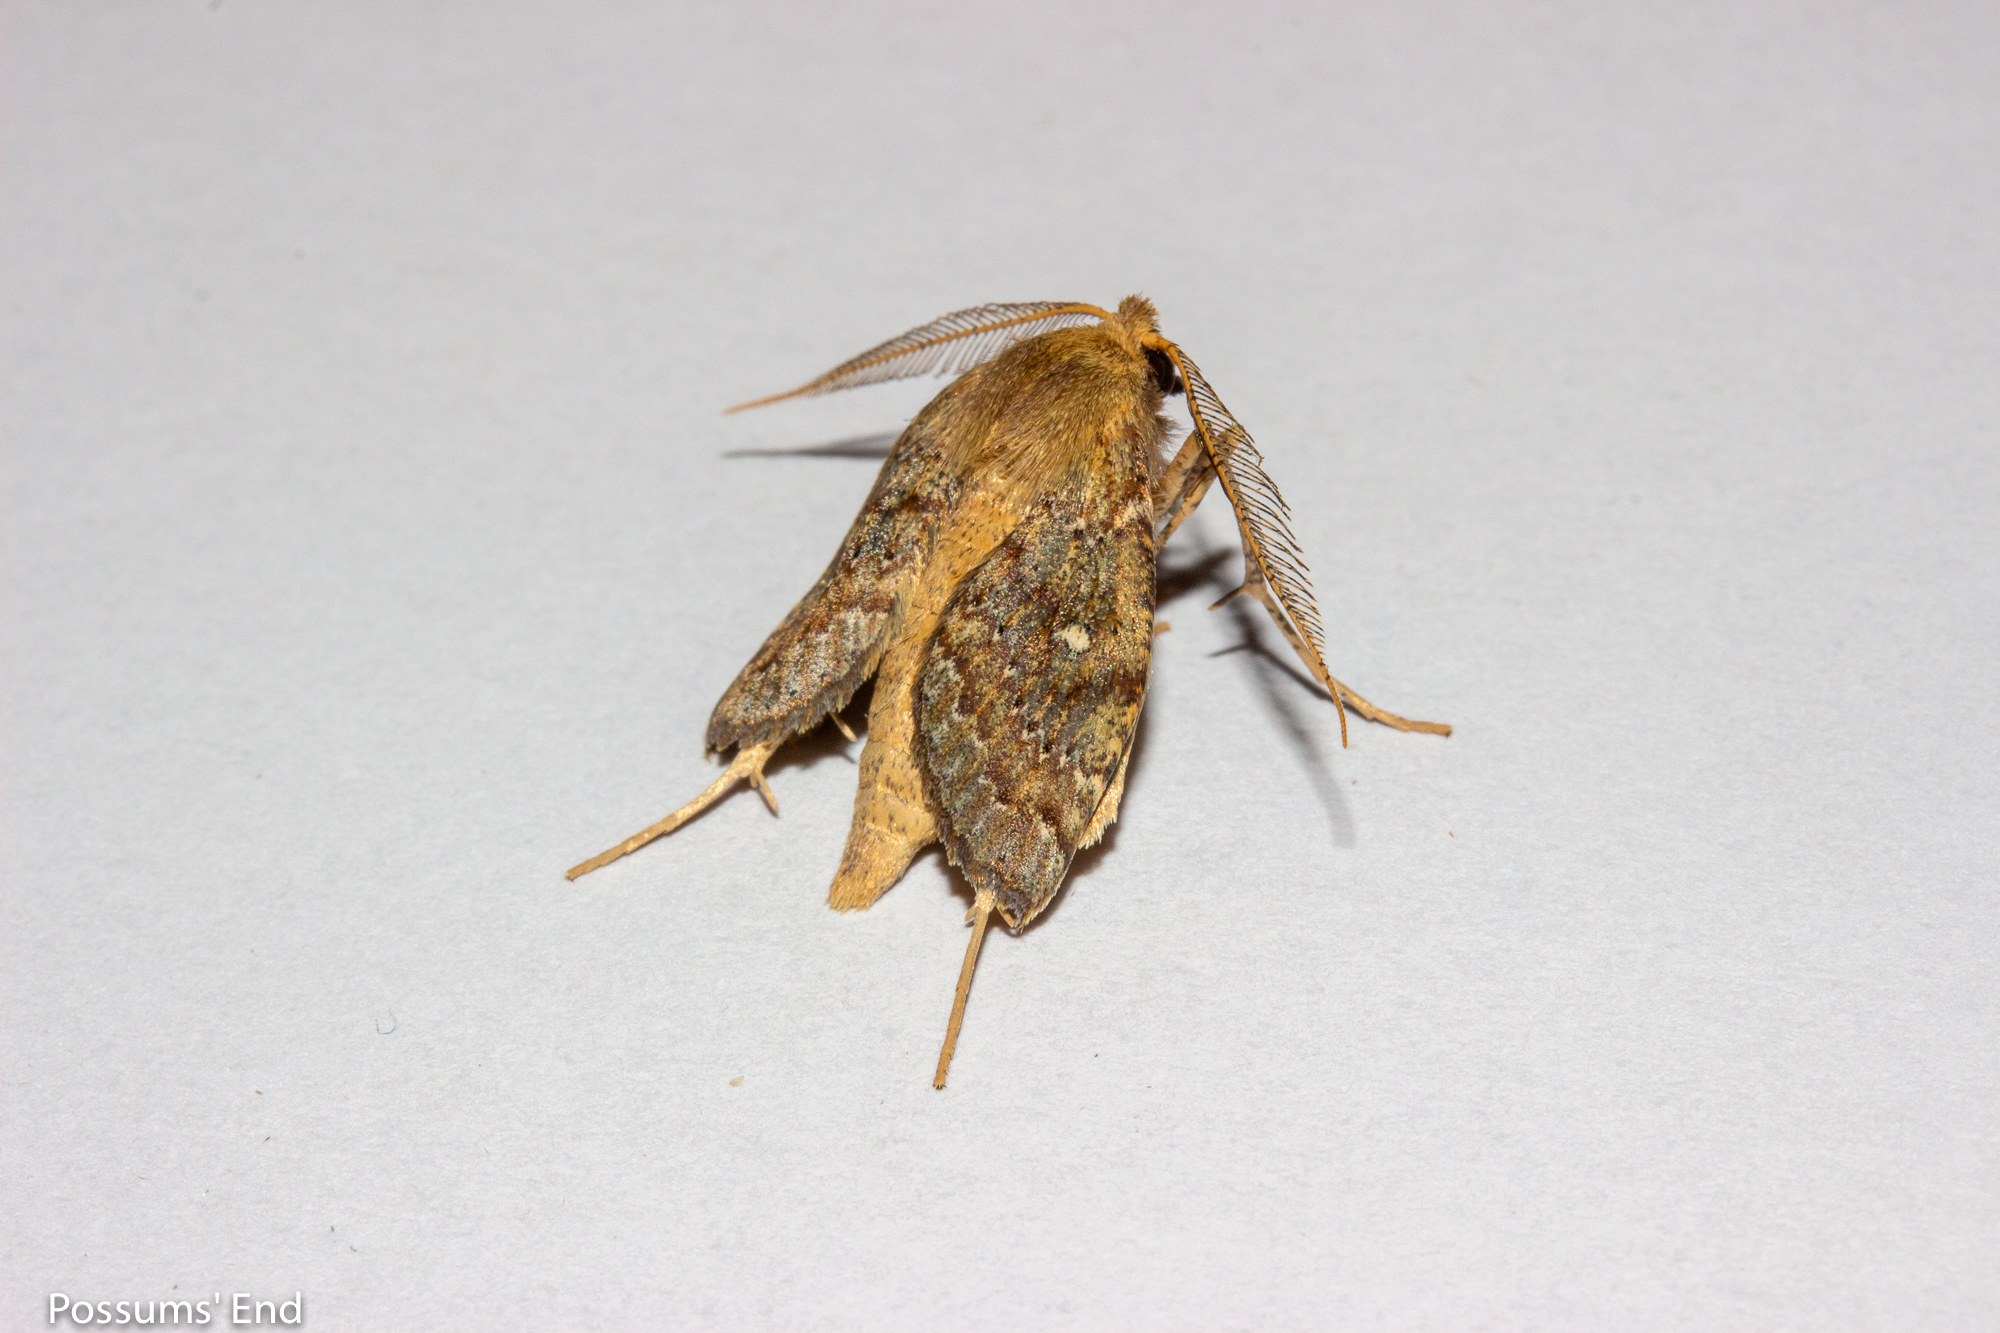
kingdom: Animalia
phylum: Arthropoda
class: Insecta
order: Lepidoptera
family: Geometridae
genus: Cleora
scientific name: Cleora scriptaria
